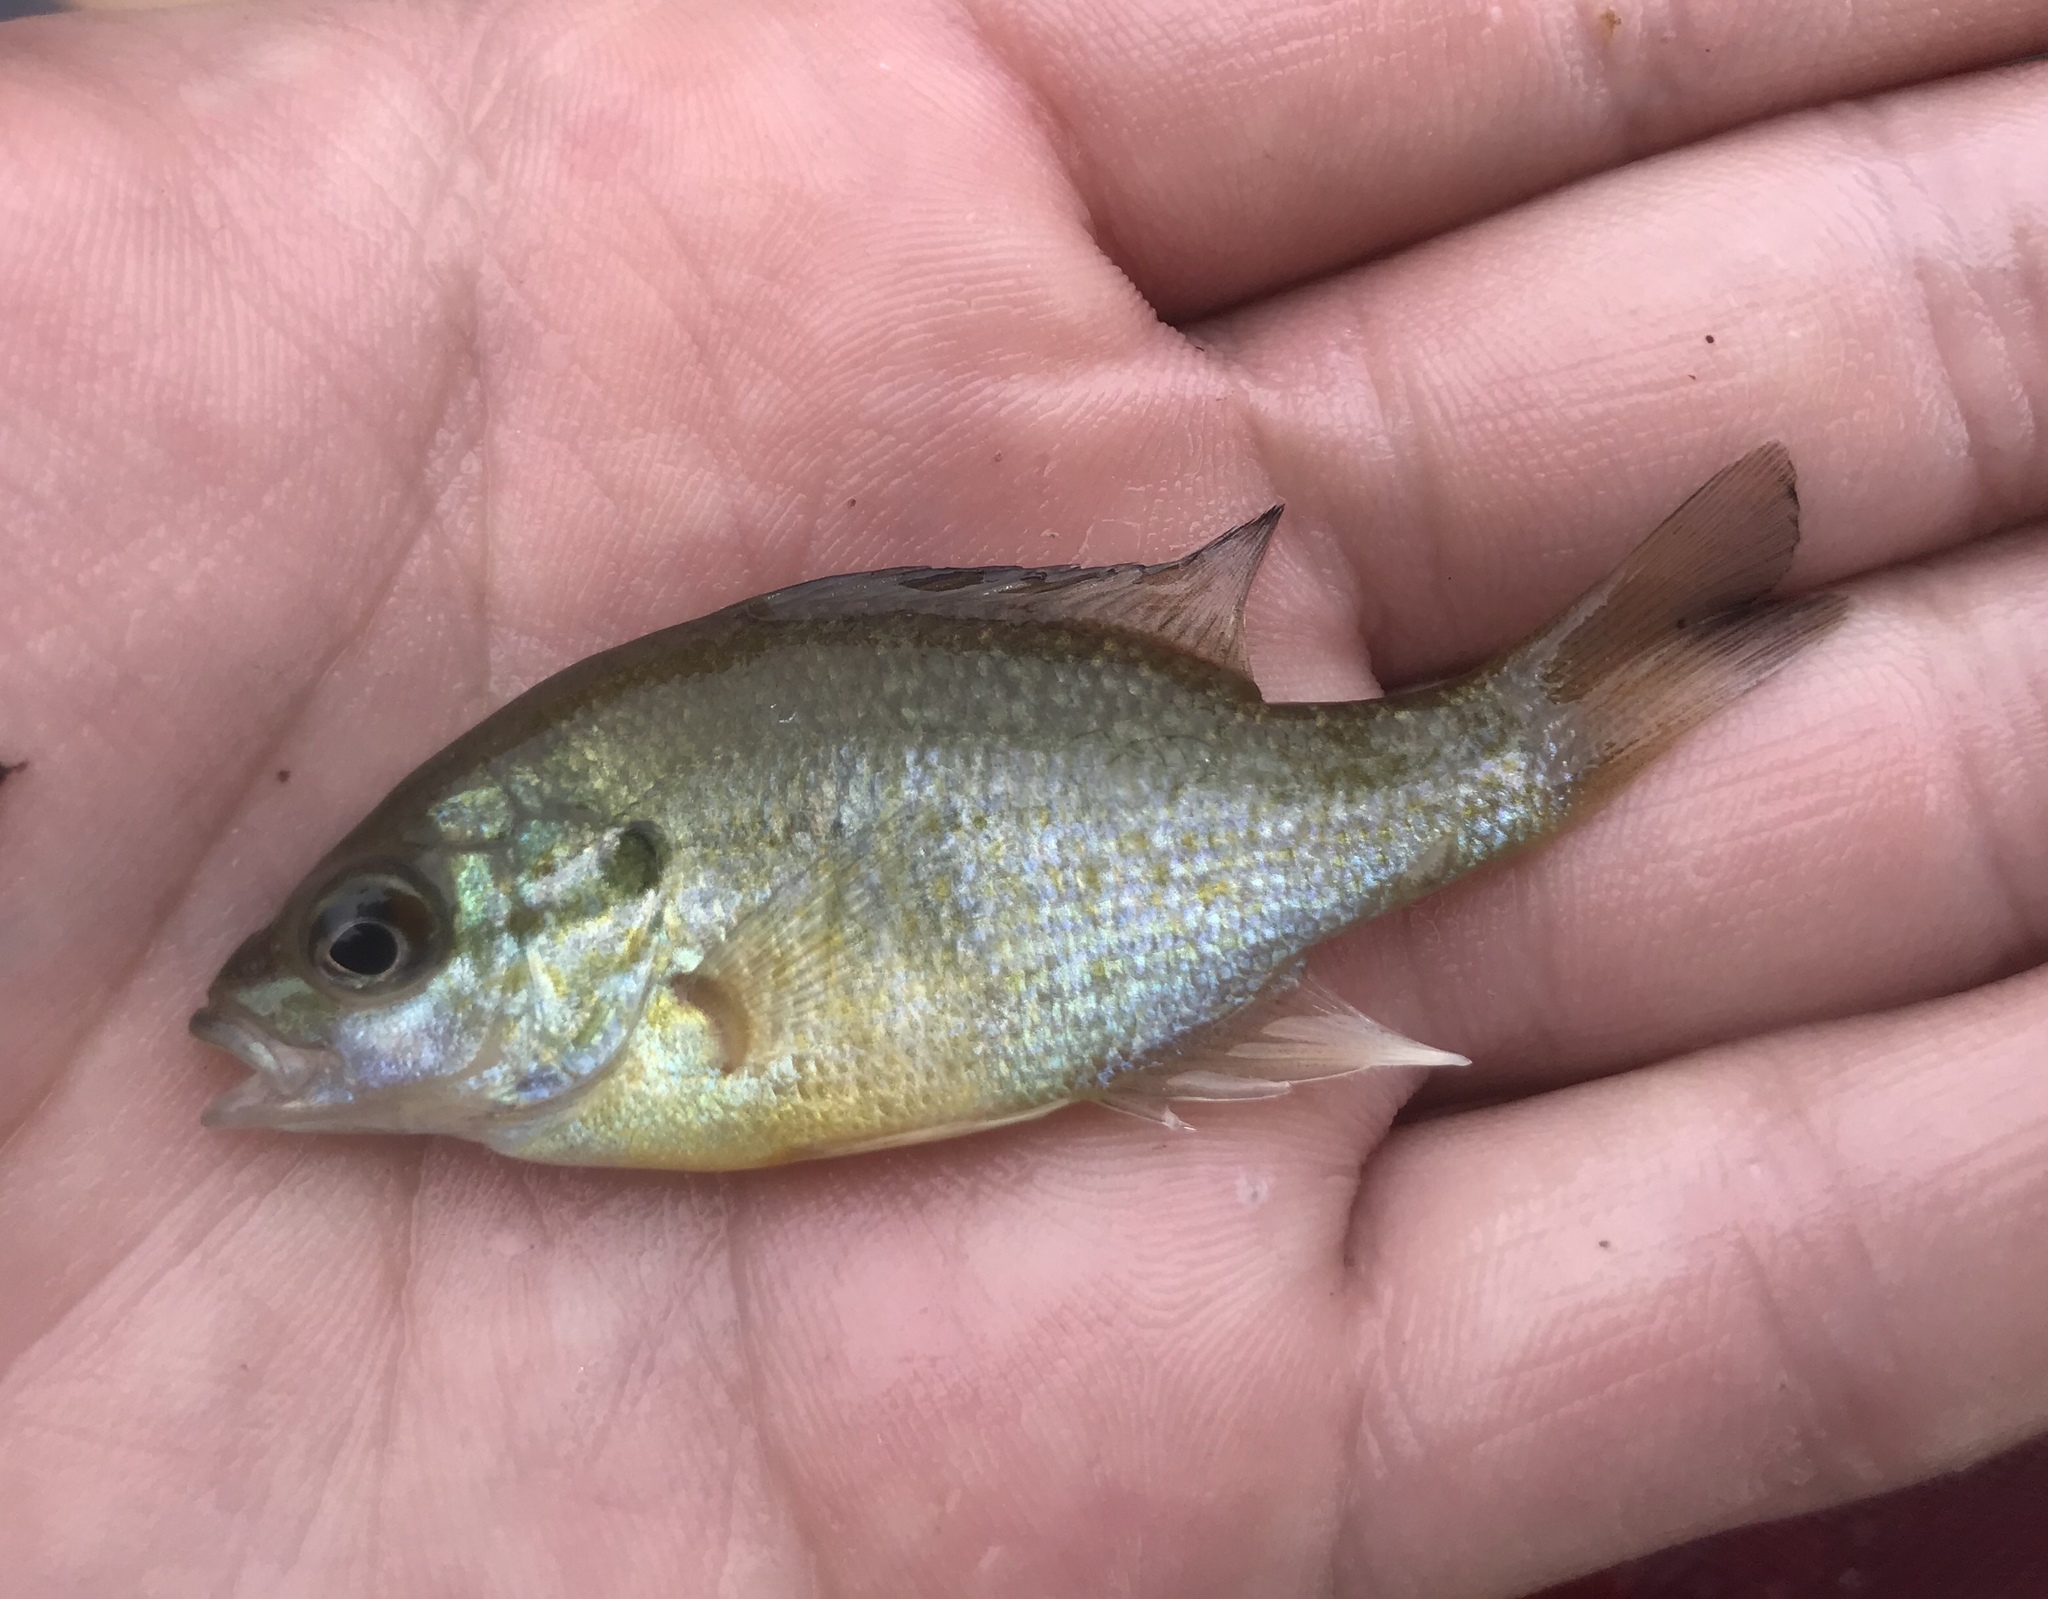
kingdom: Animalia
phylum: Chordata
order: Perciformes
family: Centrarchidae
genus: Lepomis
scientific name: Lepomis auritus
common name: Redbreast sunfish
